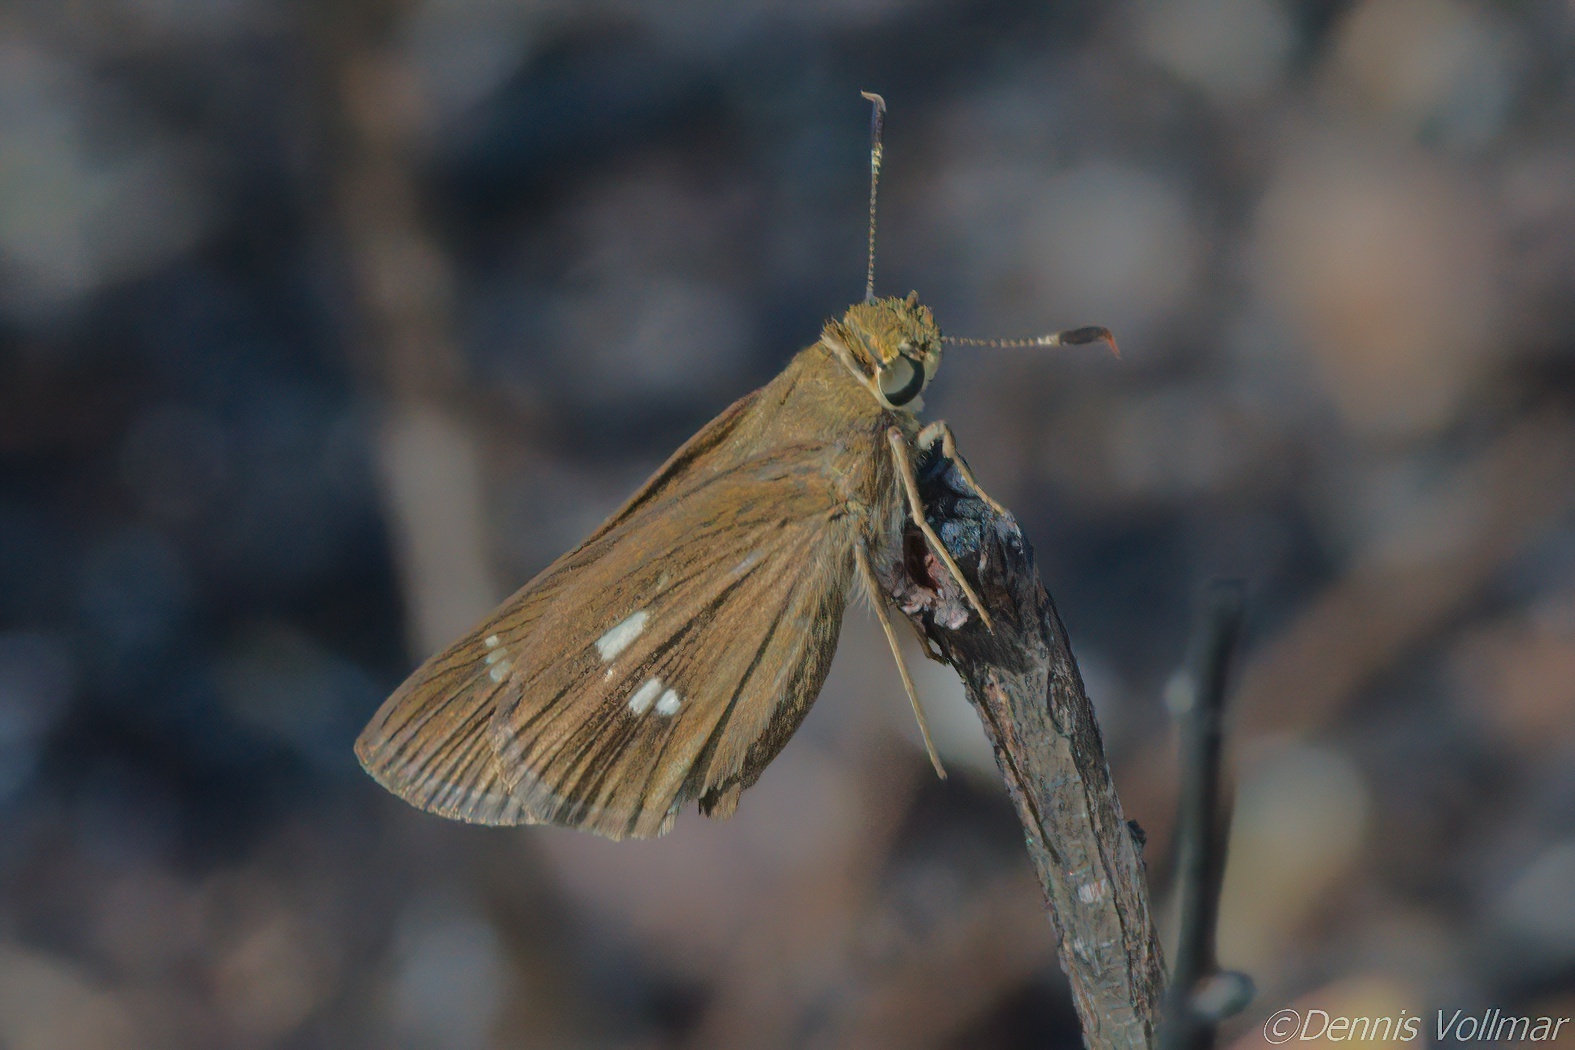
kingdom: Animalia
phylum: Arthropoda
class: Insecta
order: Lepidoptera
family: Hesperiidae
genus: Oligoria
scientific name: Oligoria maculata
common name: Twin-spot skipper
